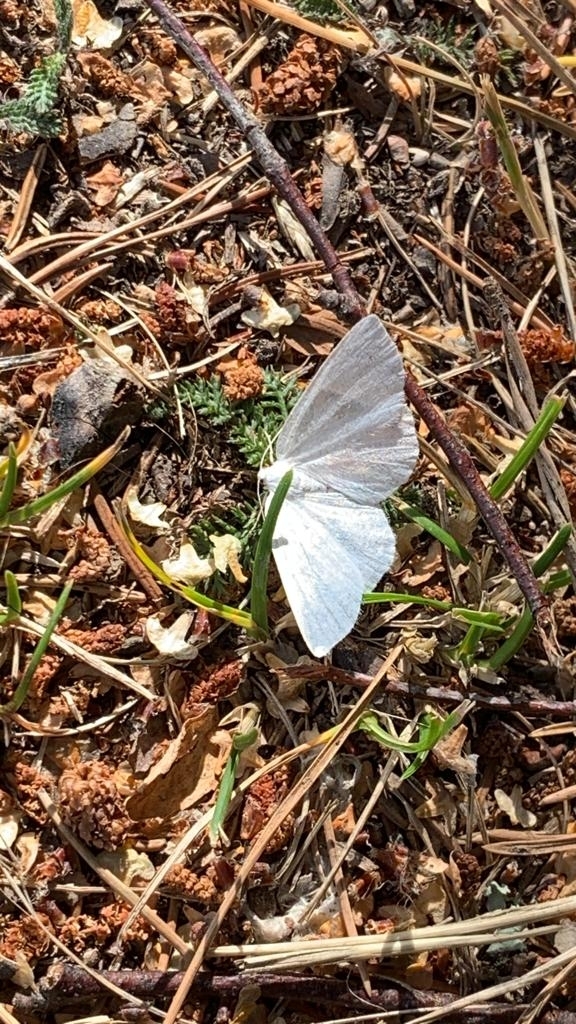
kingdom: Animalia
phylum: Arthropoda
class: Insecta
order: Lepidoptera
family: Geometridae
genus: Cabera
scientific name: Cabera pusaria
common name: Common white wave
